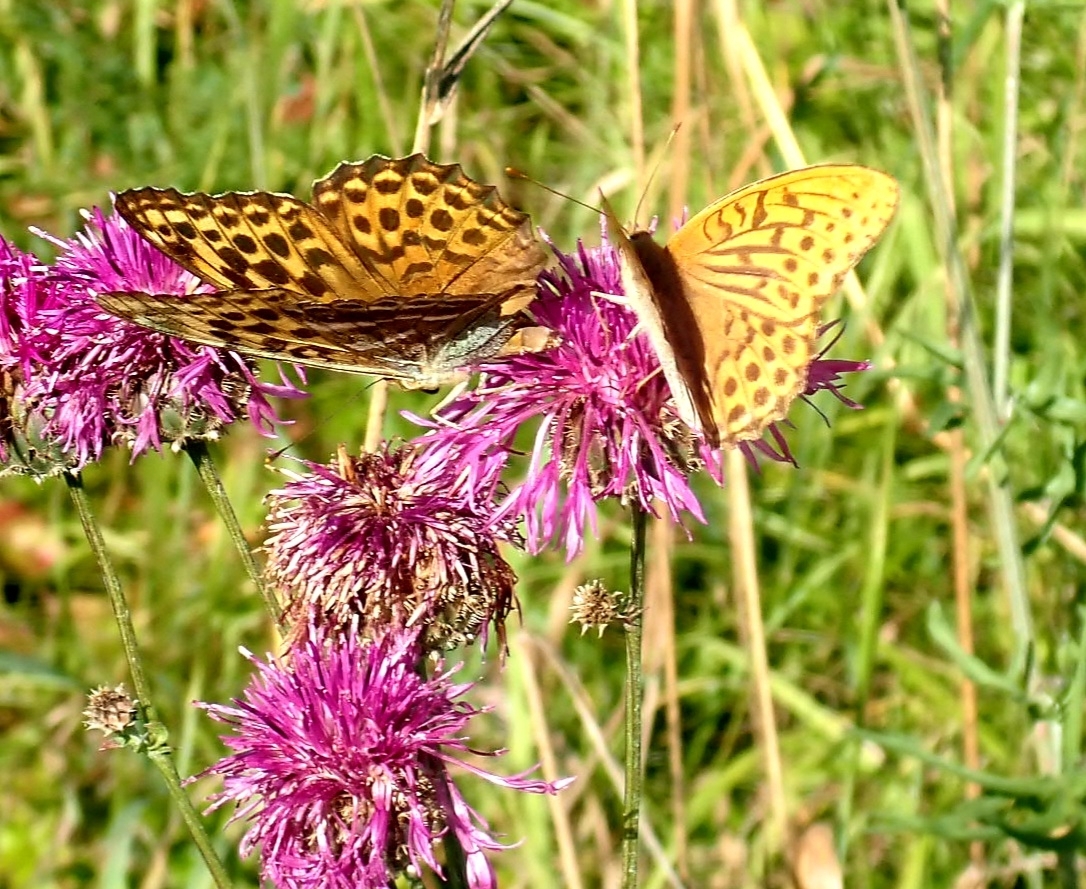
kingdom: Animalia
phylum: Arthropoda
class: Insecta
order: Lepidoptera
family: Nymphalidae
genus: Argynnis
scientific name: Argynnis paphia
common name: Silver-washed fritillary
